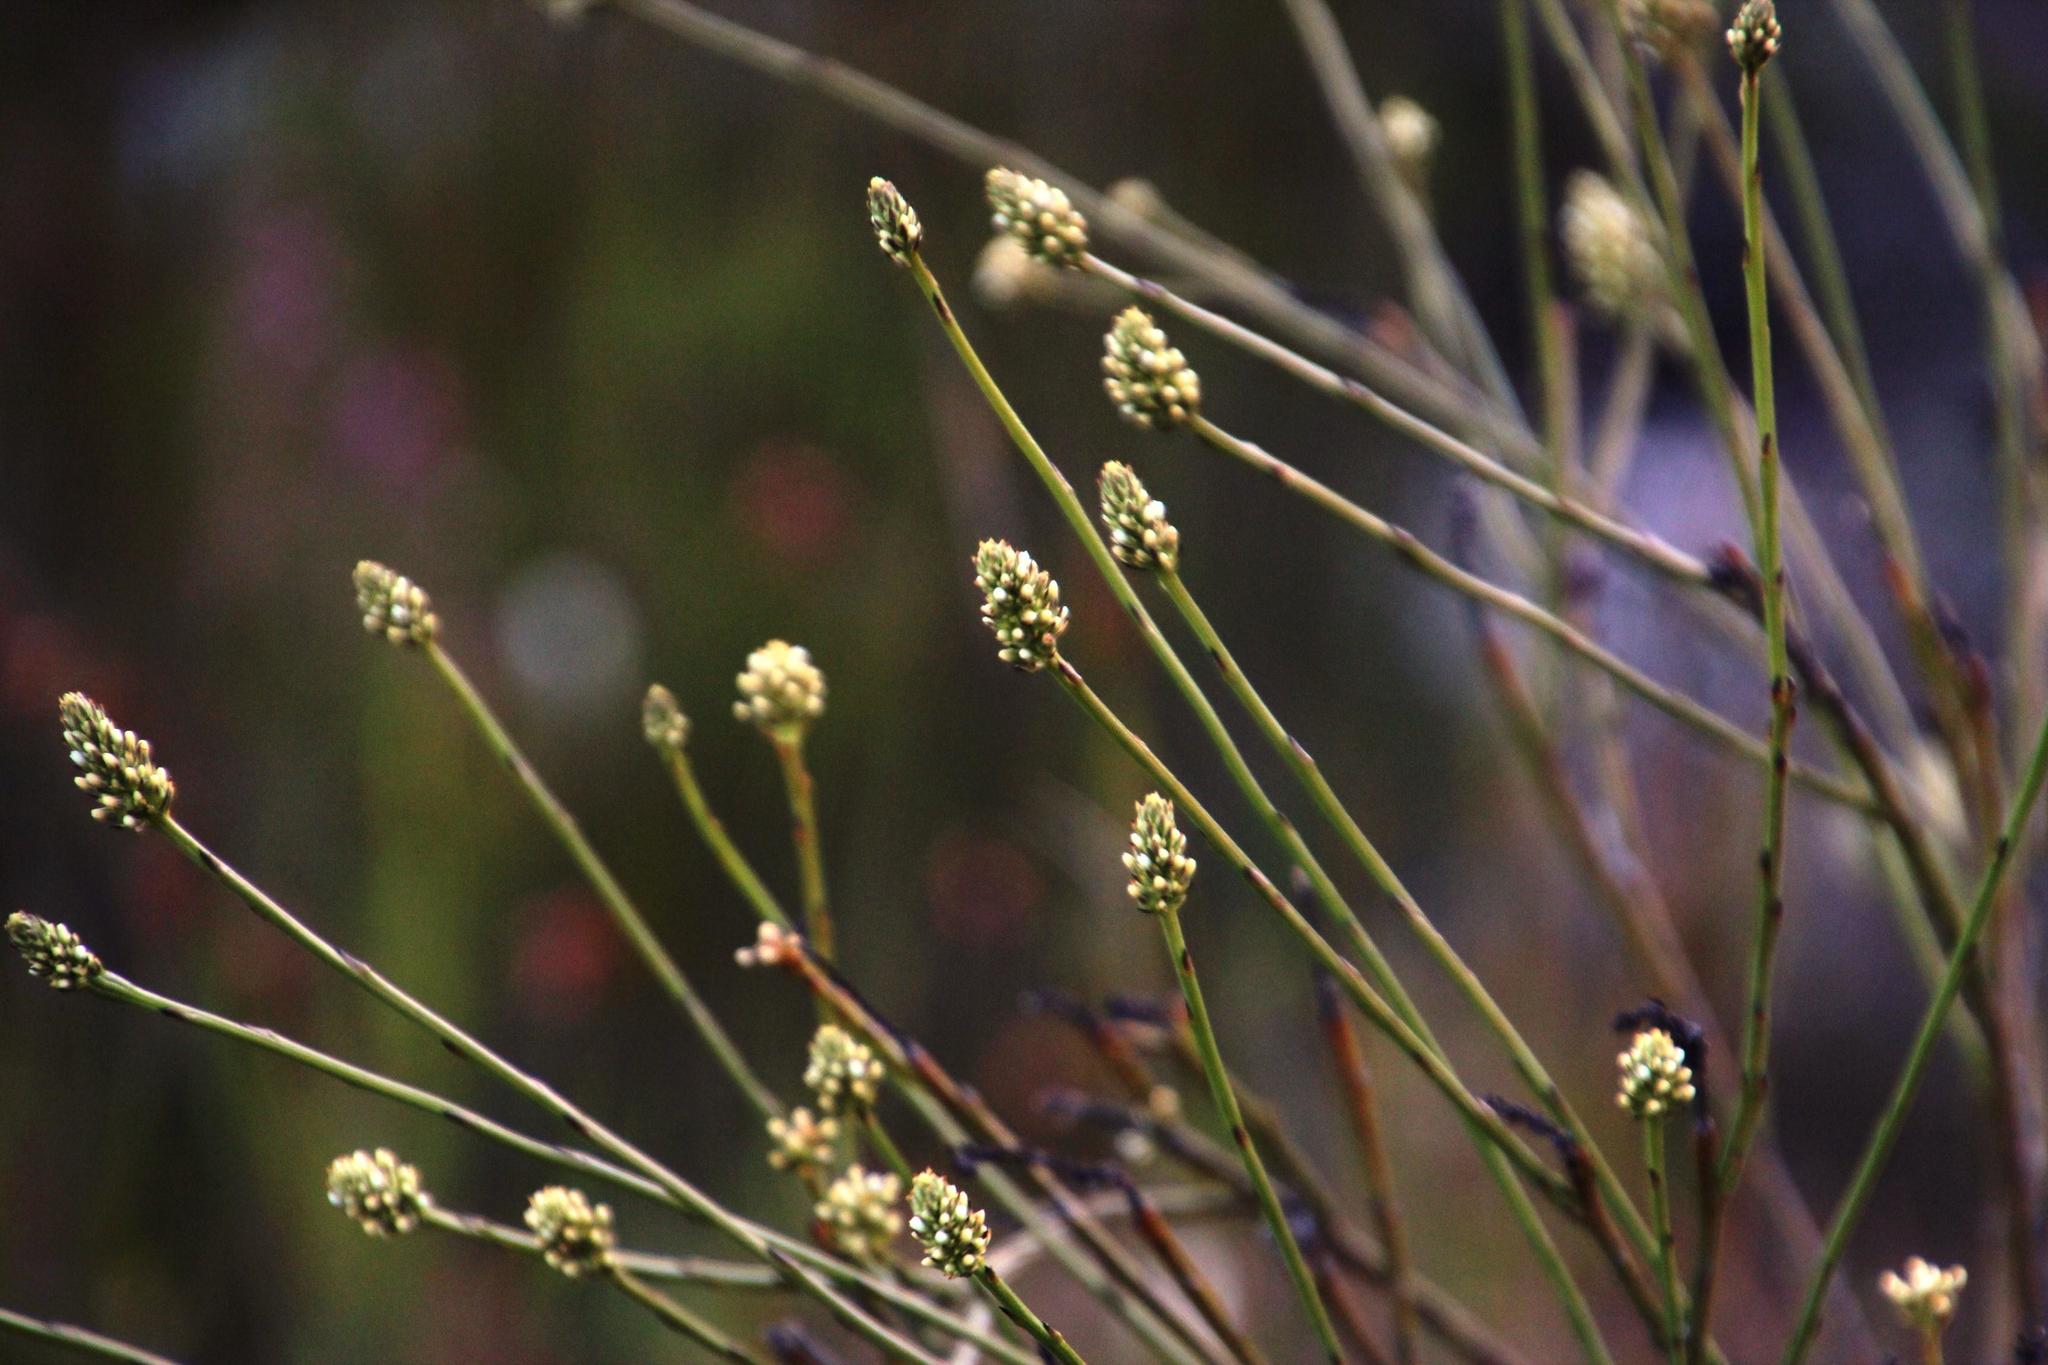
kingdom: Plantae
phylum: Tracheophyta
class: Magnoliopsida
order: Santalales
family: Thesiaceae
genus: Thesium
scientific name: Thesium spicatum
